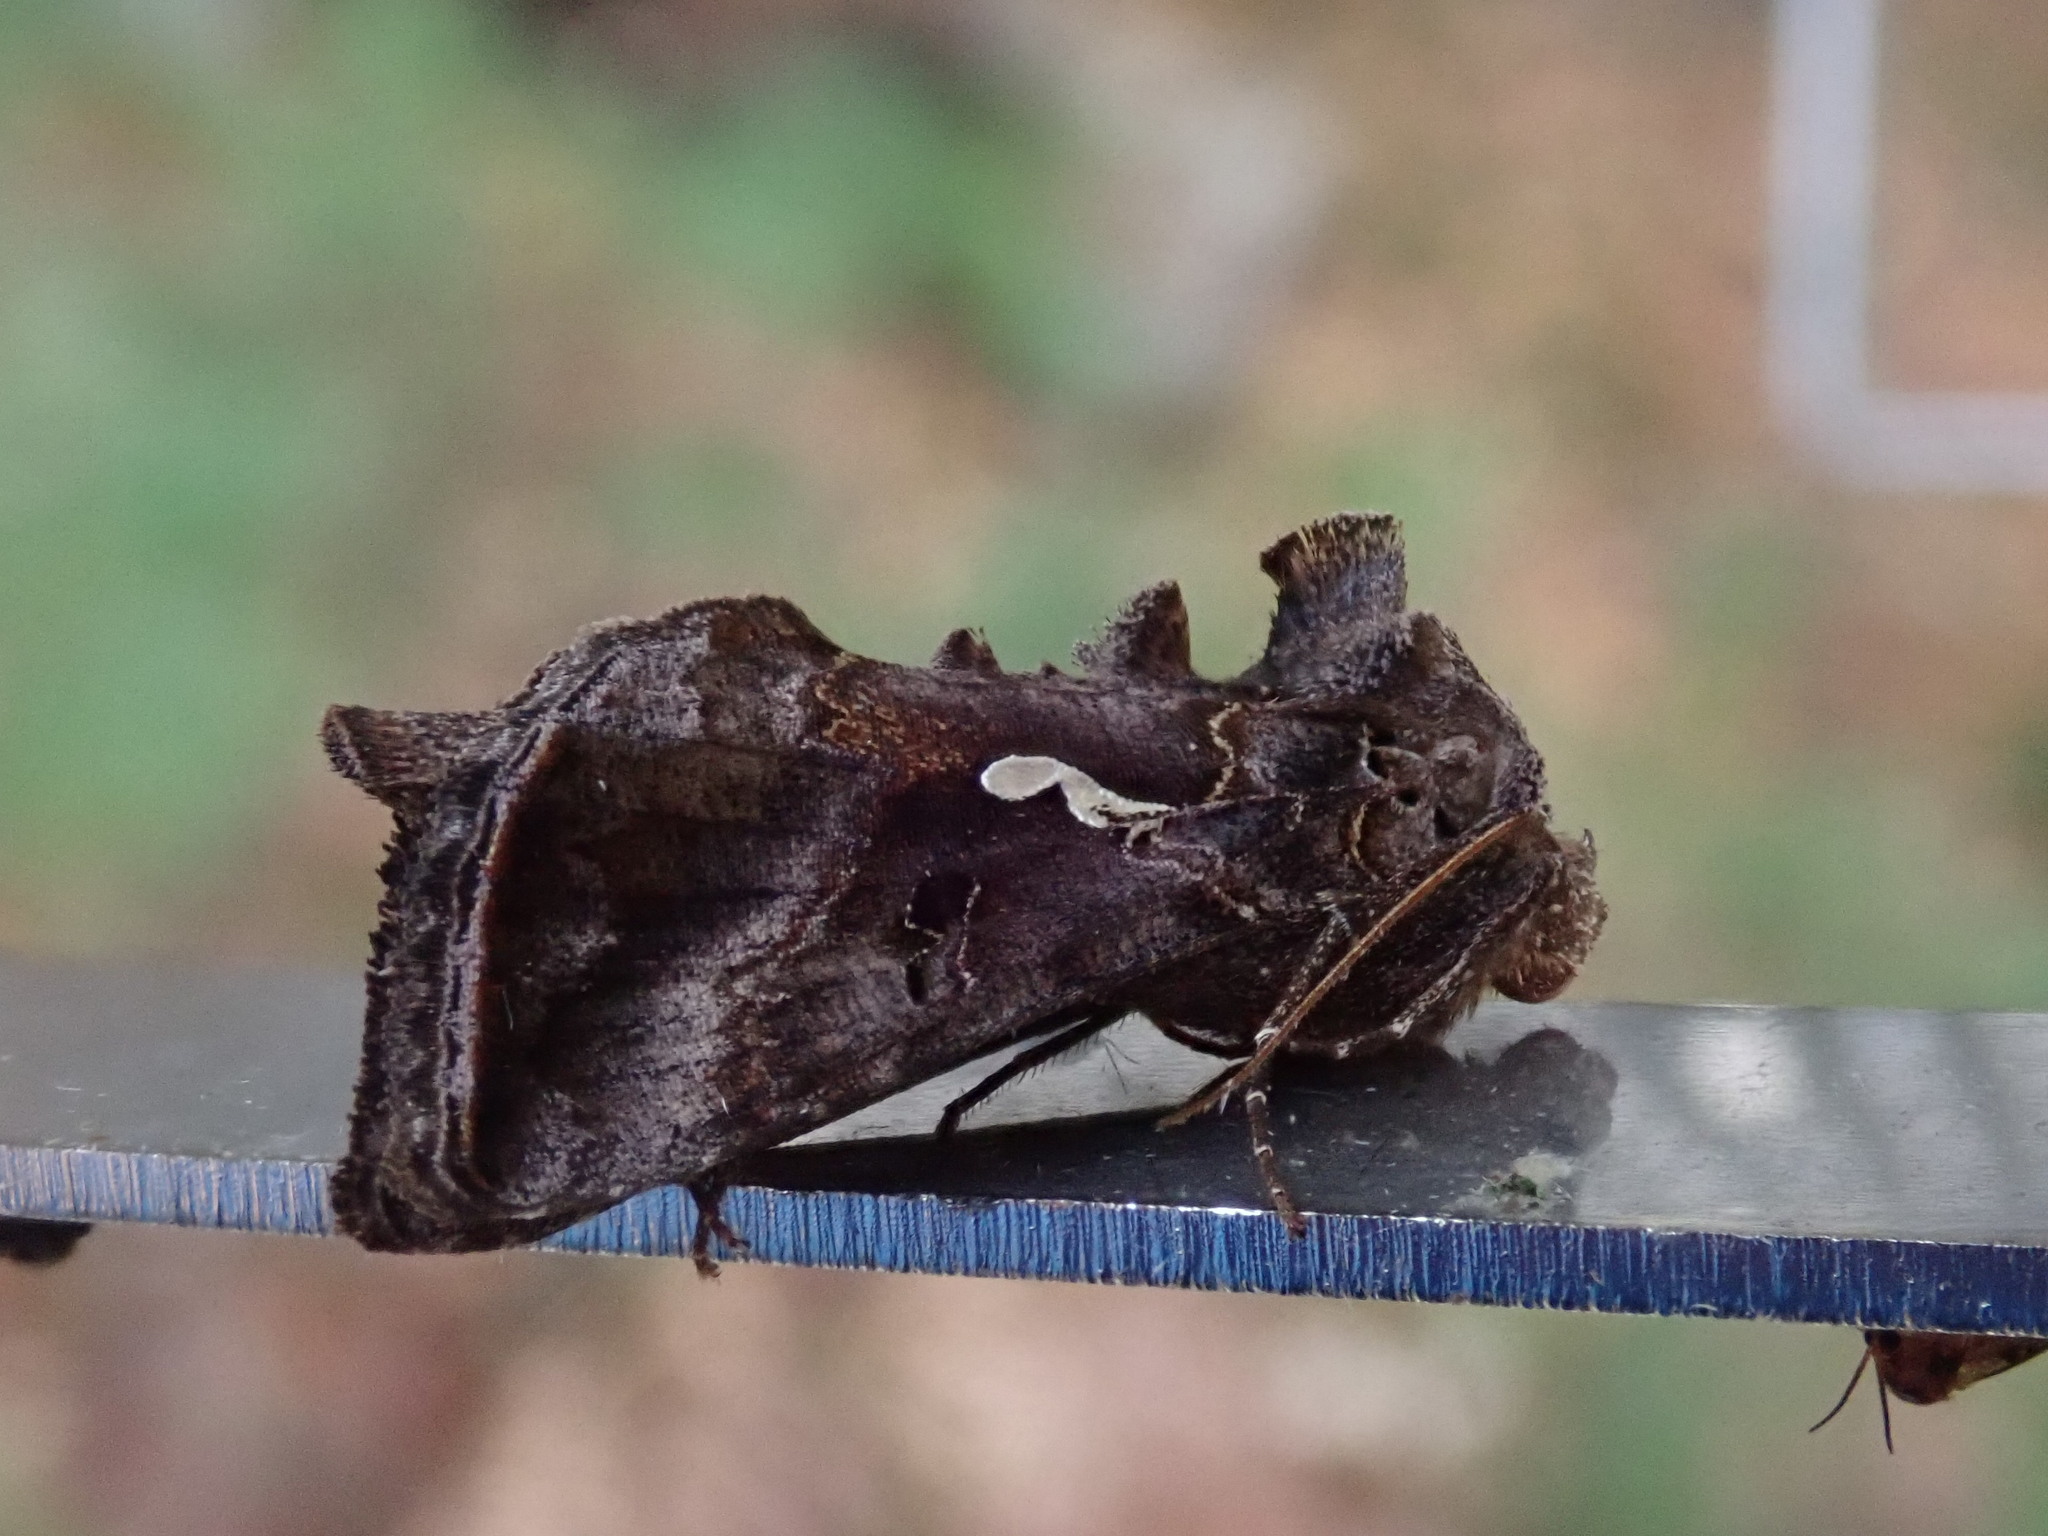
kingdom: Animalia
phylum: Arthropoda
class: Insecta
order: Lepidoptera
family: Noctuidae
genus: Autographa
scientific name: Autographa precationis
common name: Common looper moth
